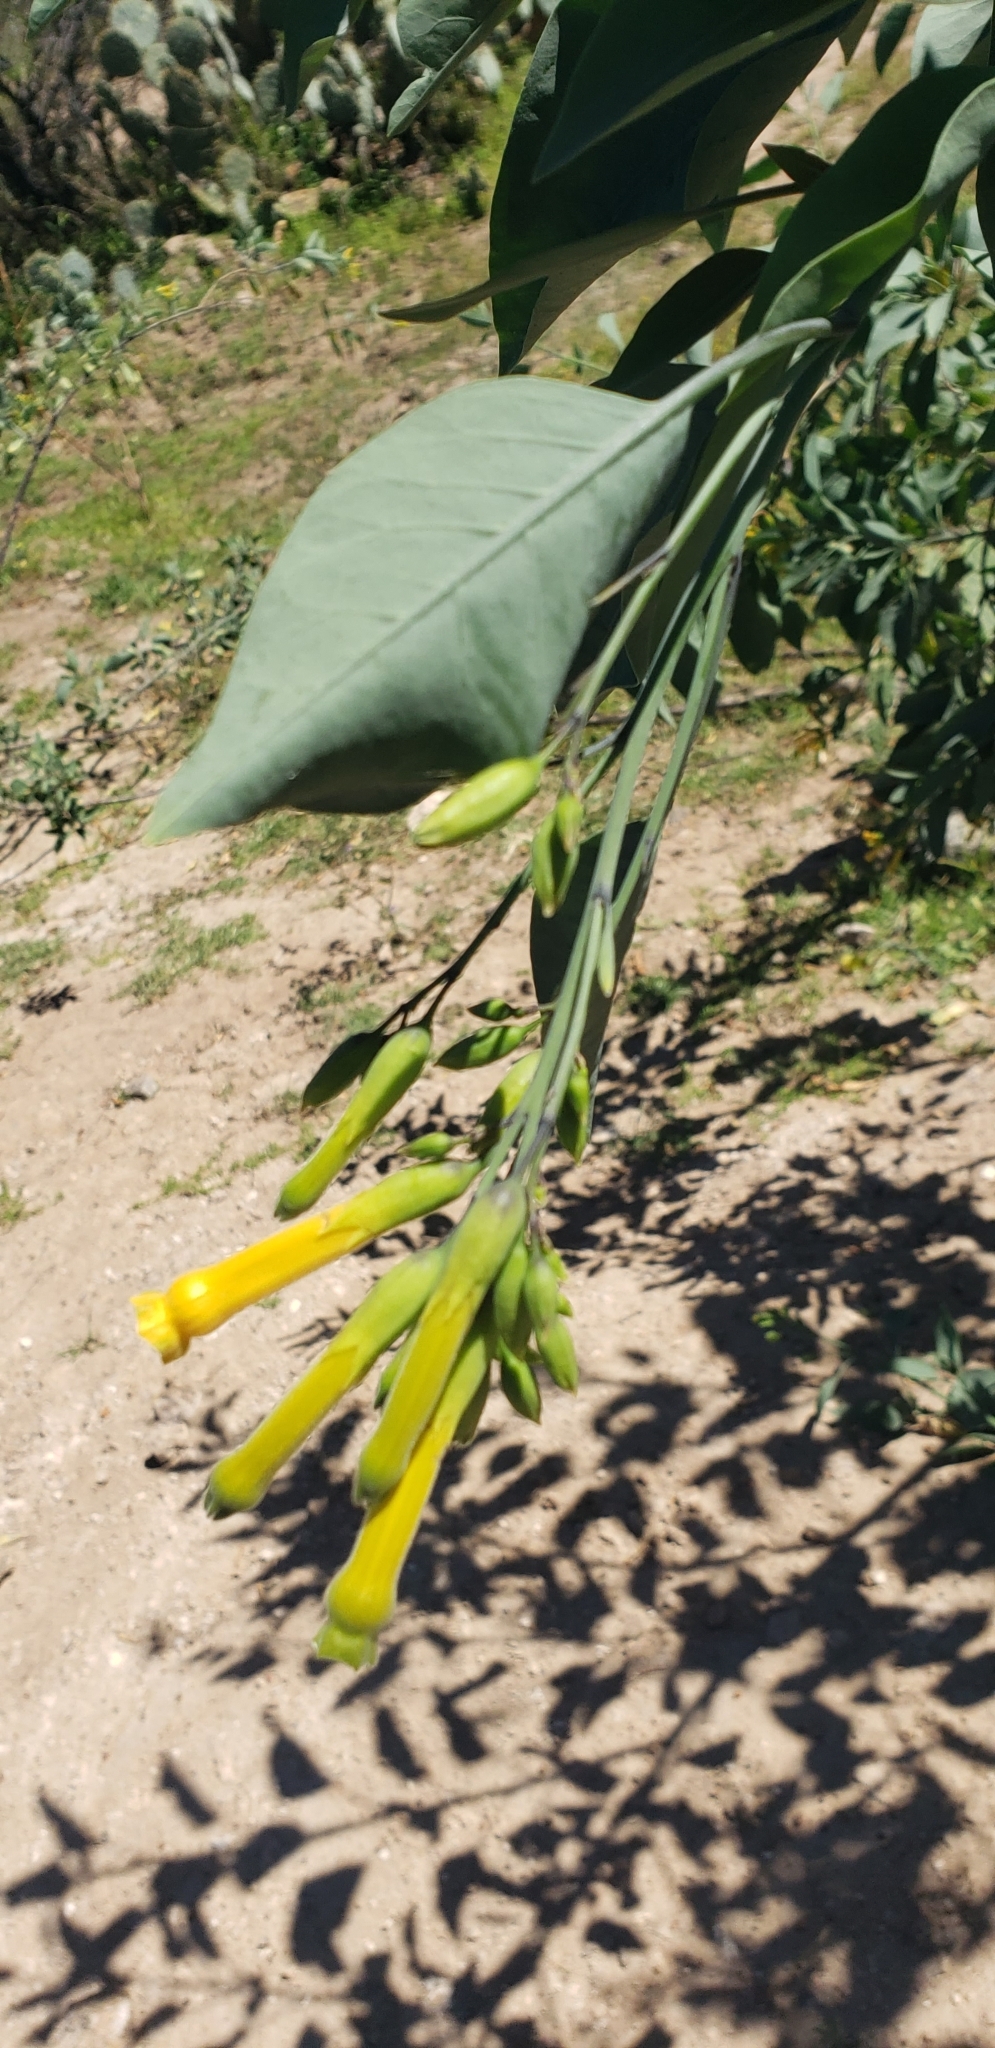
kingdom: Plantae
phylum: Tracheophyta
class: Magnoliopsida
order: Solanales
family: Solanaceae
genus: Nicotiana
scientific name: Nicotiana glauca
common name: Tree tobacco
